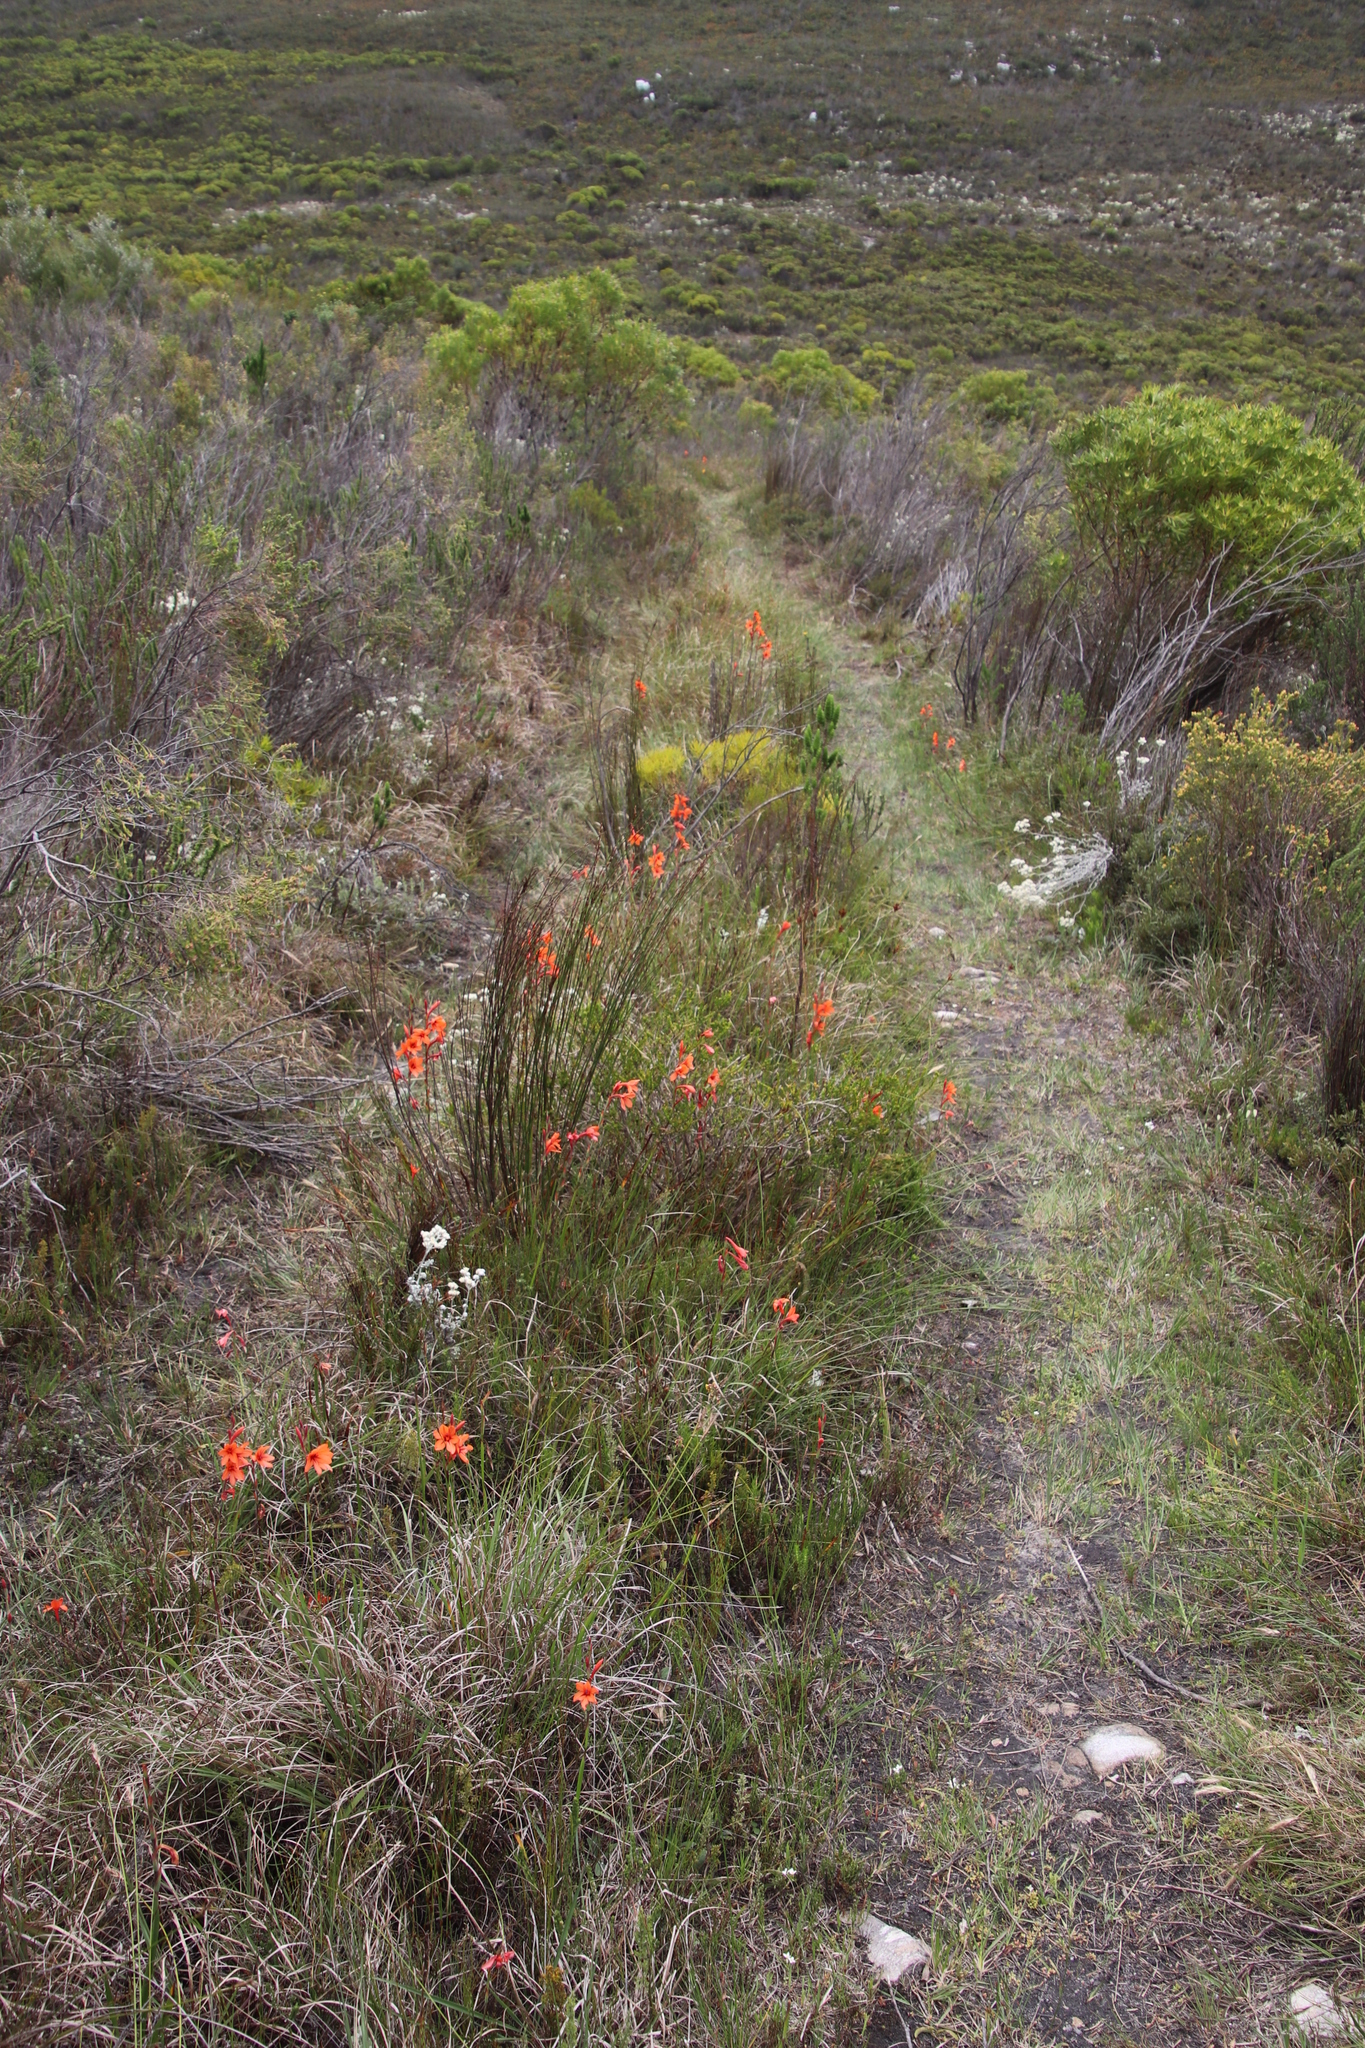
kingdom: Plantae
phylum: Tracheophyta
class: Liliopsida
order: Asparagales
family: Iridaceae
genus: Watsonia
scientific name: Watsonia stenosiphon
